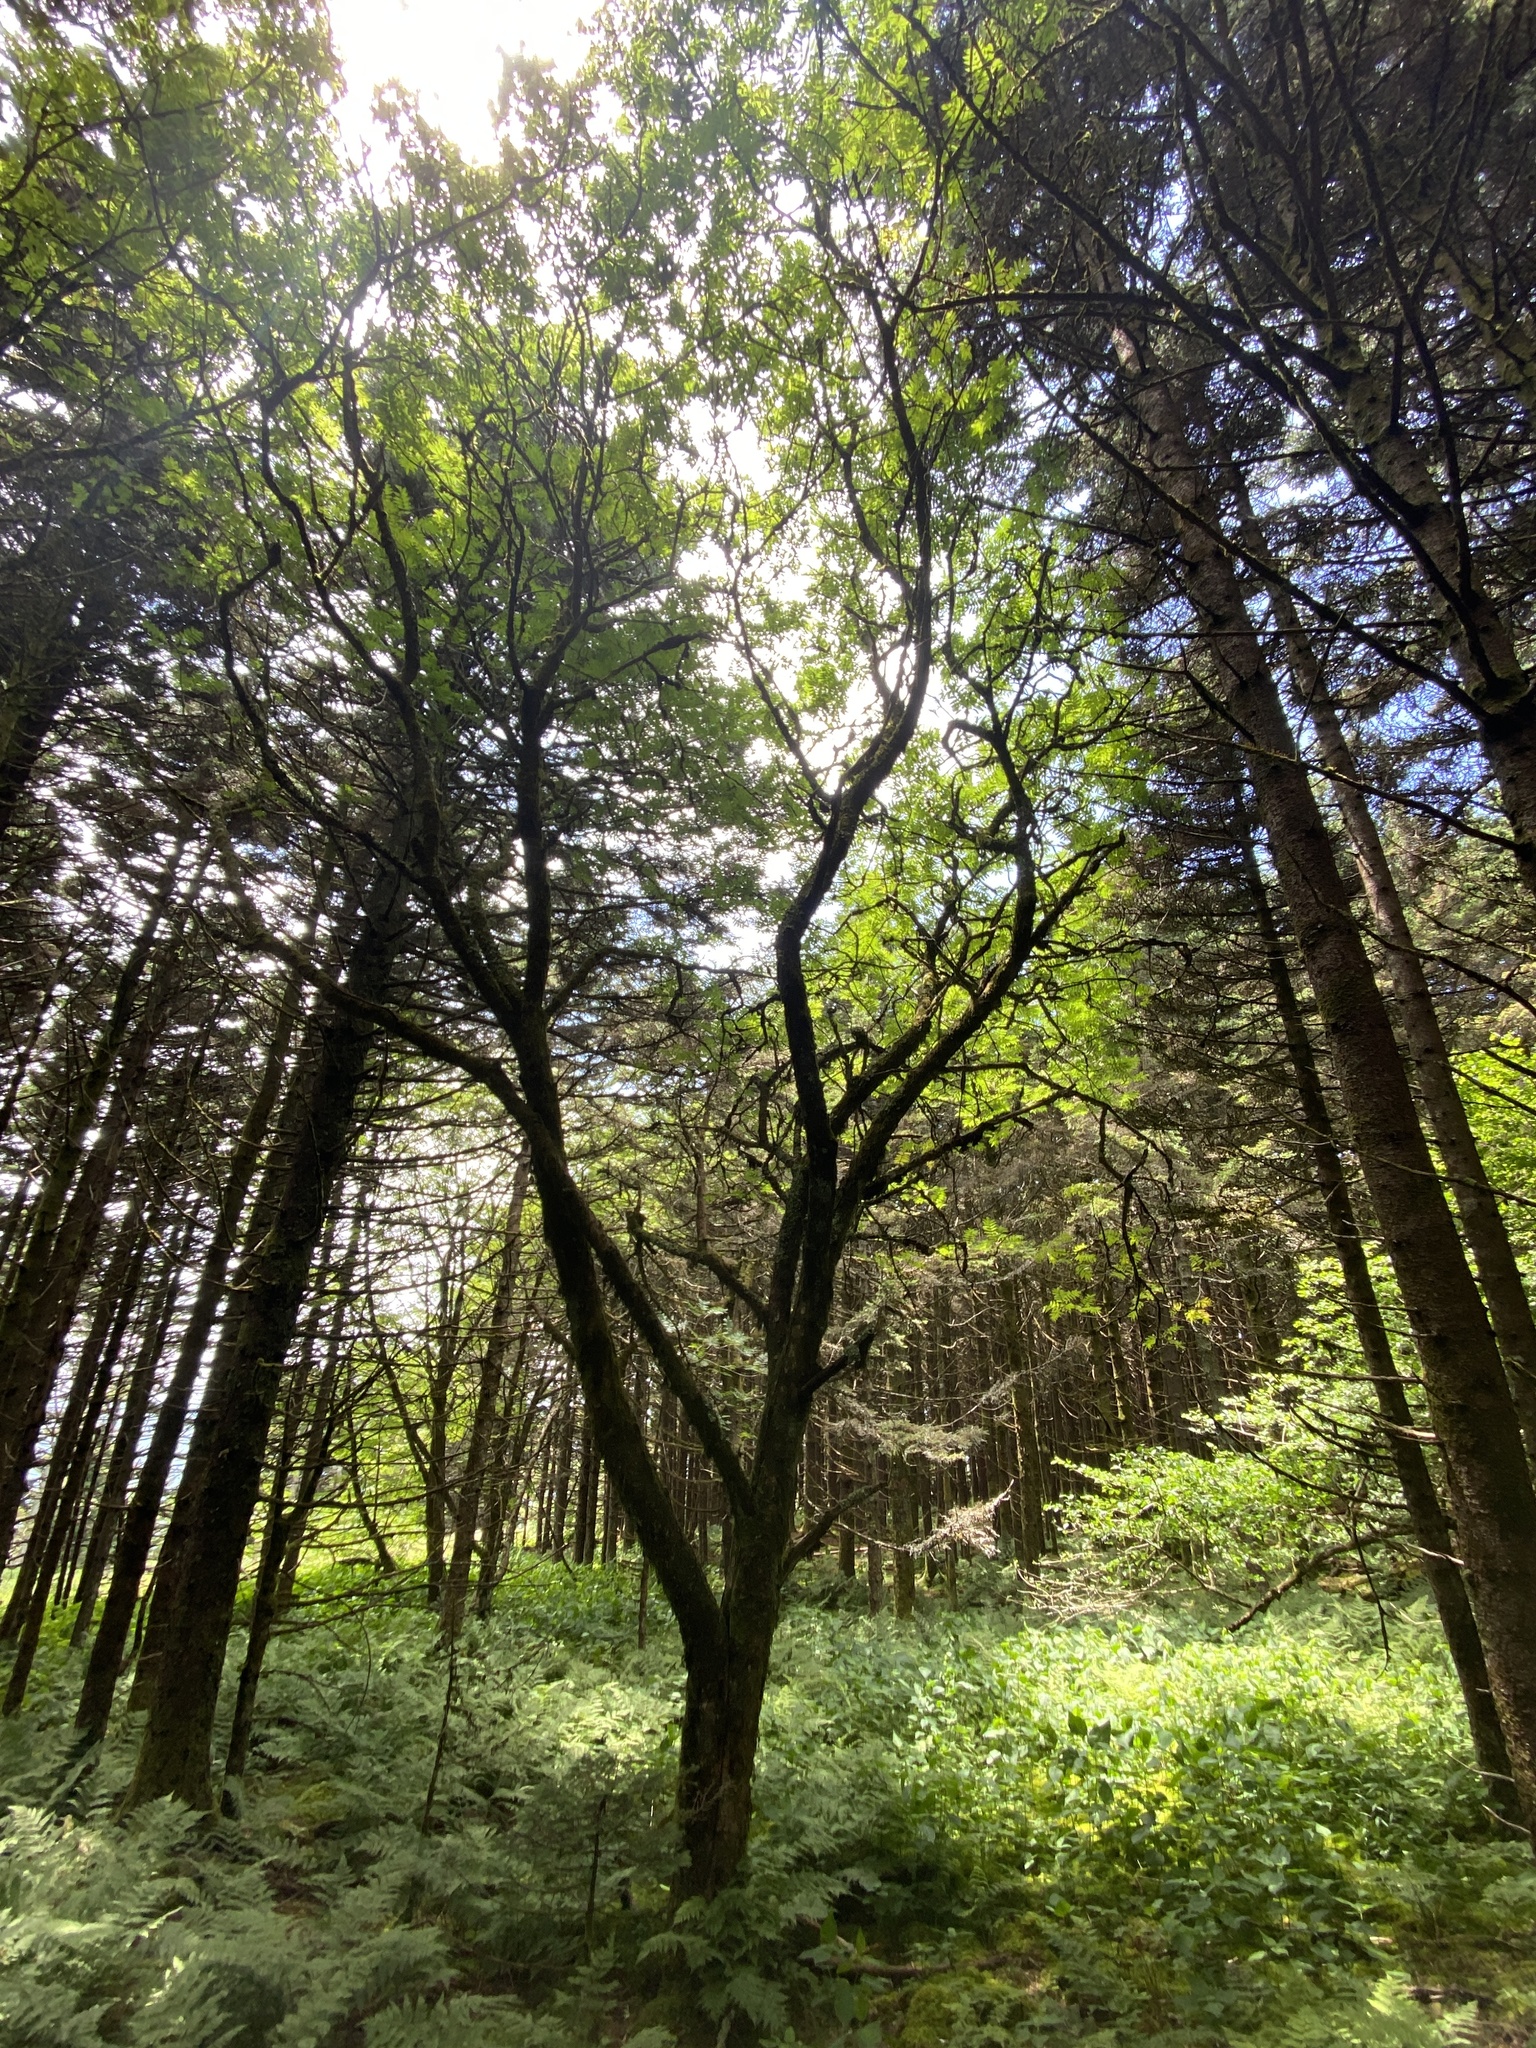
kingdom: Plantae
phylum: Tracheophyta
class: Magnoliopsida
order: Rosales
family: Rosaceae
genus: Sorbus
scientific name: Sorbus americana
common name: American mountain-ash
